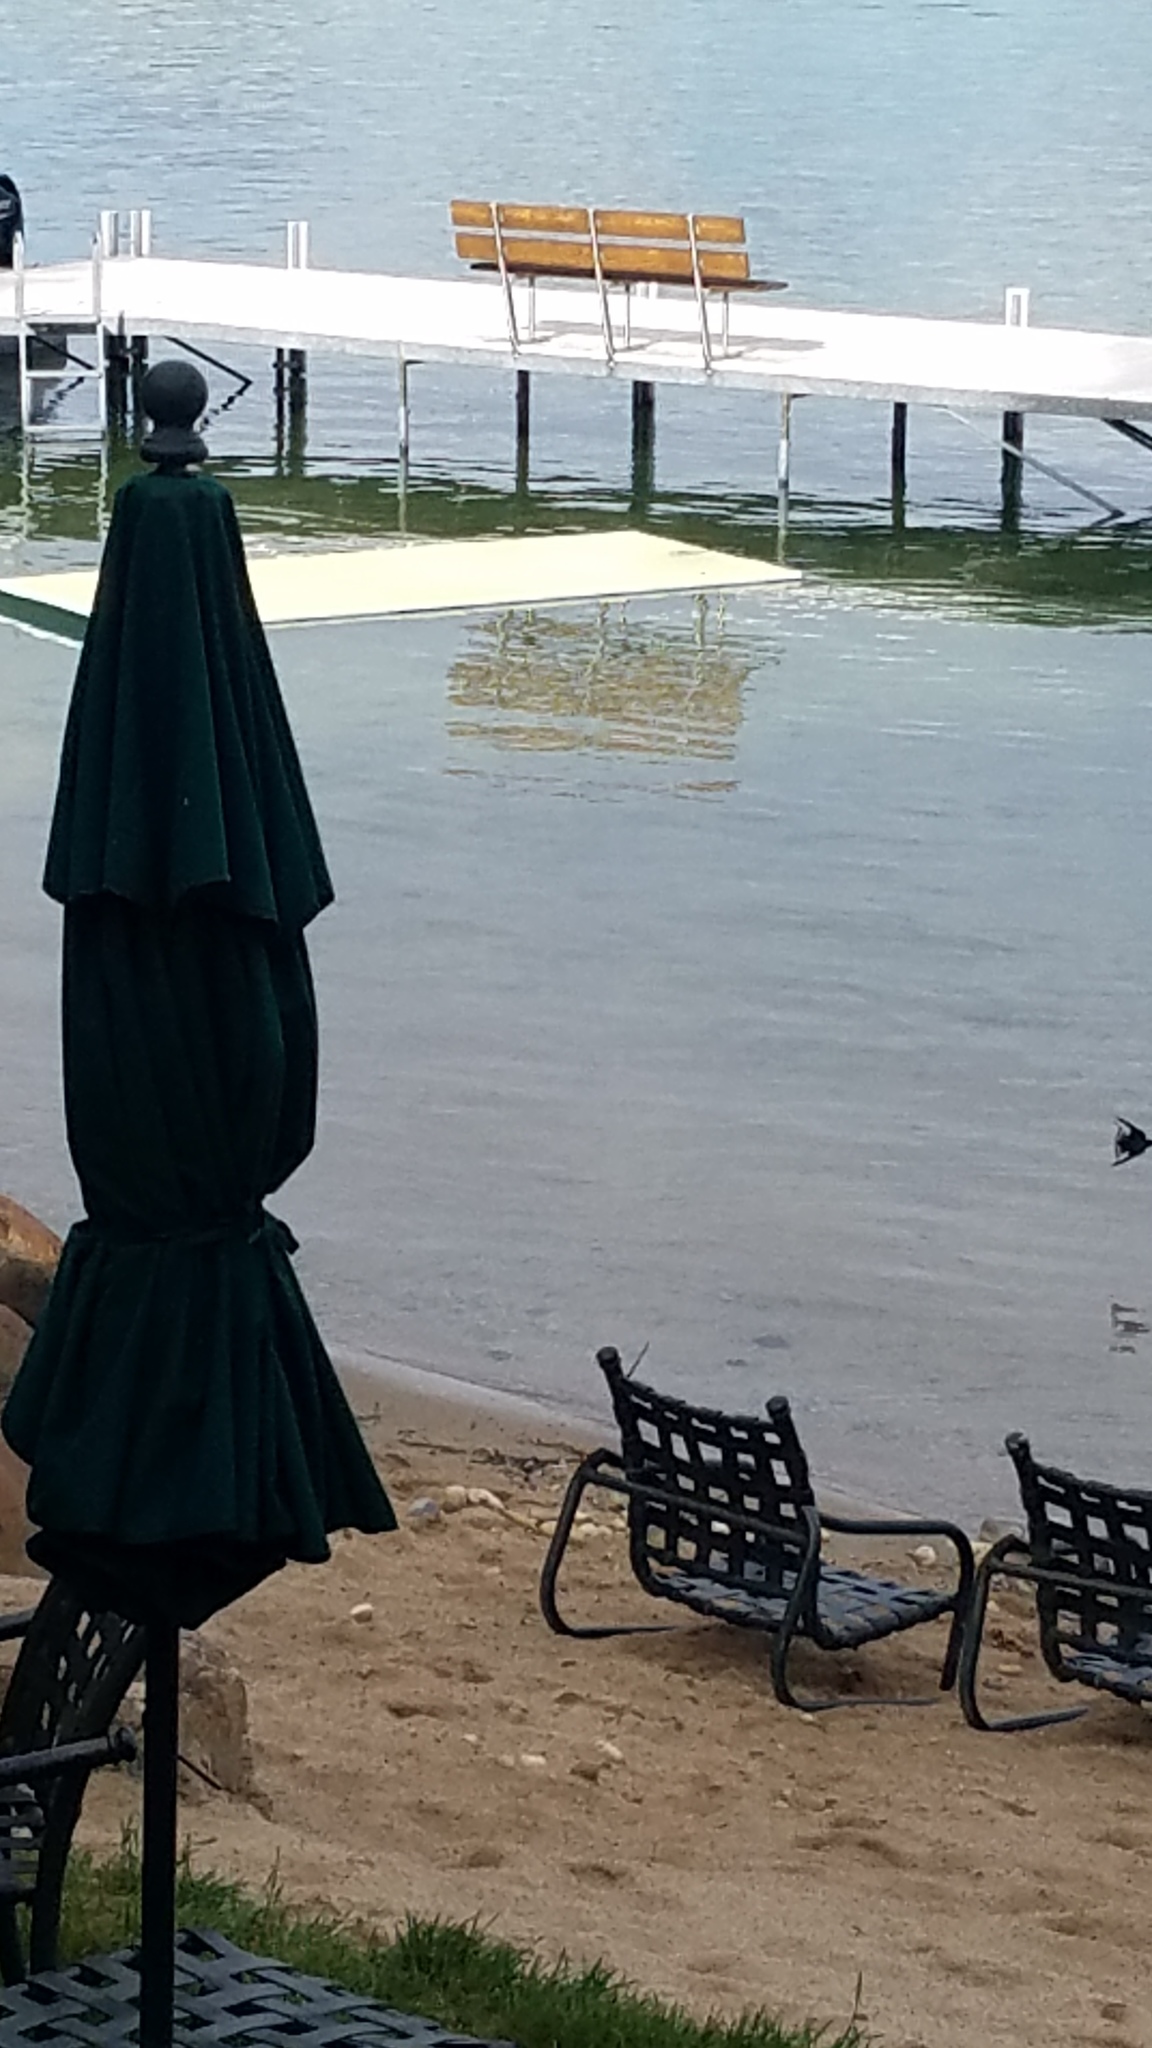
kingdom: Animalia
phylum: Chordata
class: Aves
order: Passeriformes
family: Hirundinidae
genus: Hirundo
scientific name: Hirundo rustica
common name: Barn swallow
